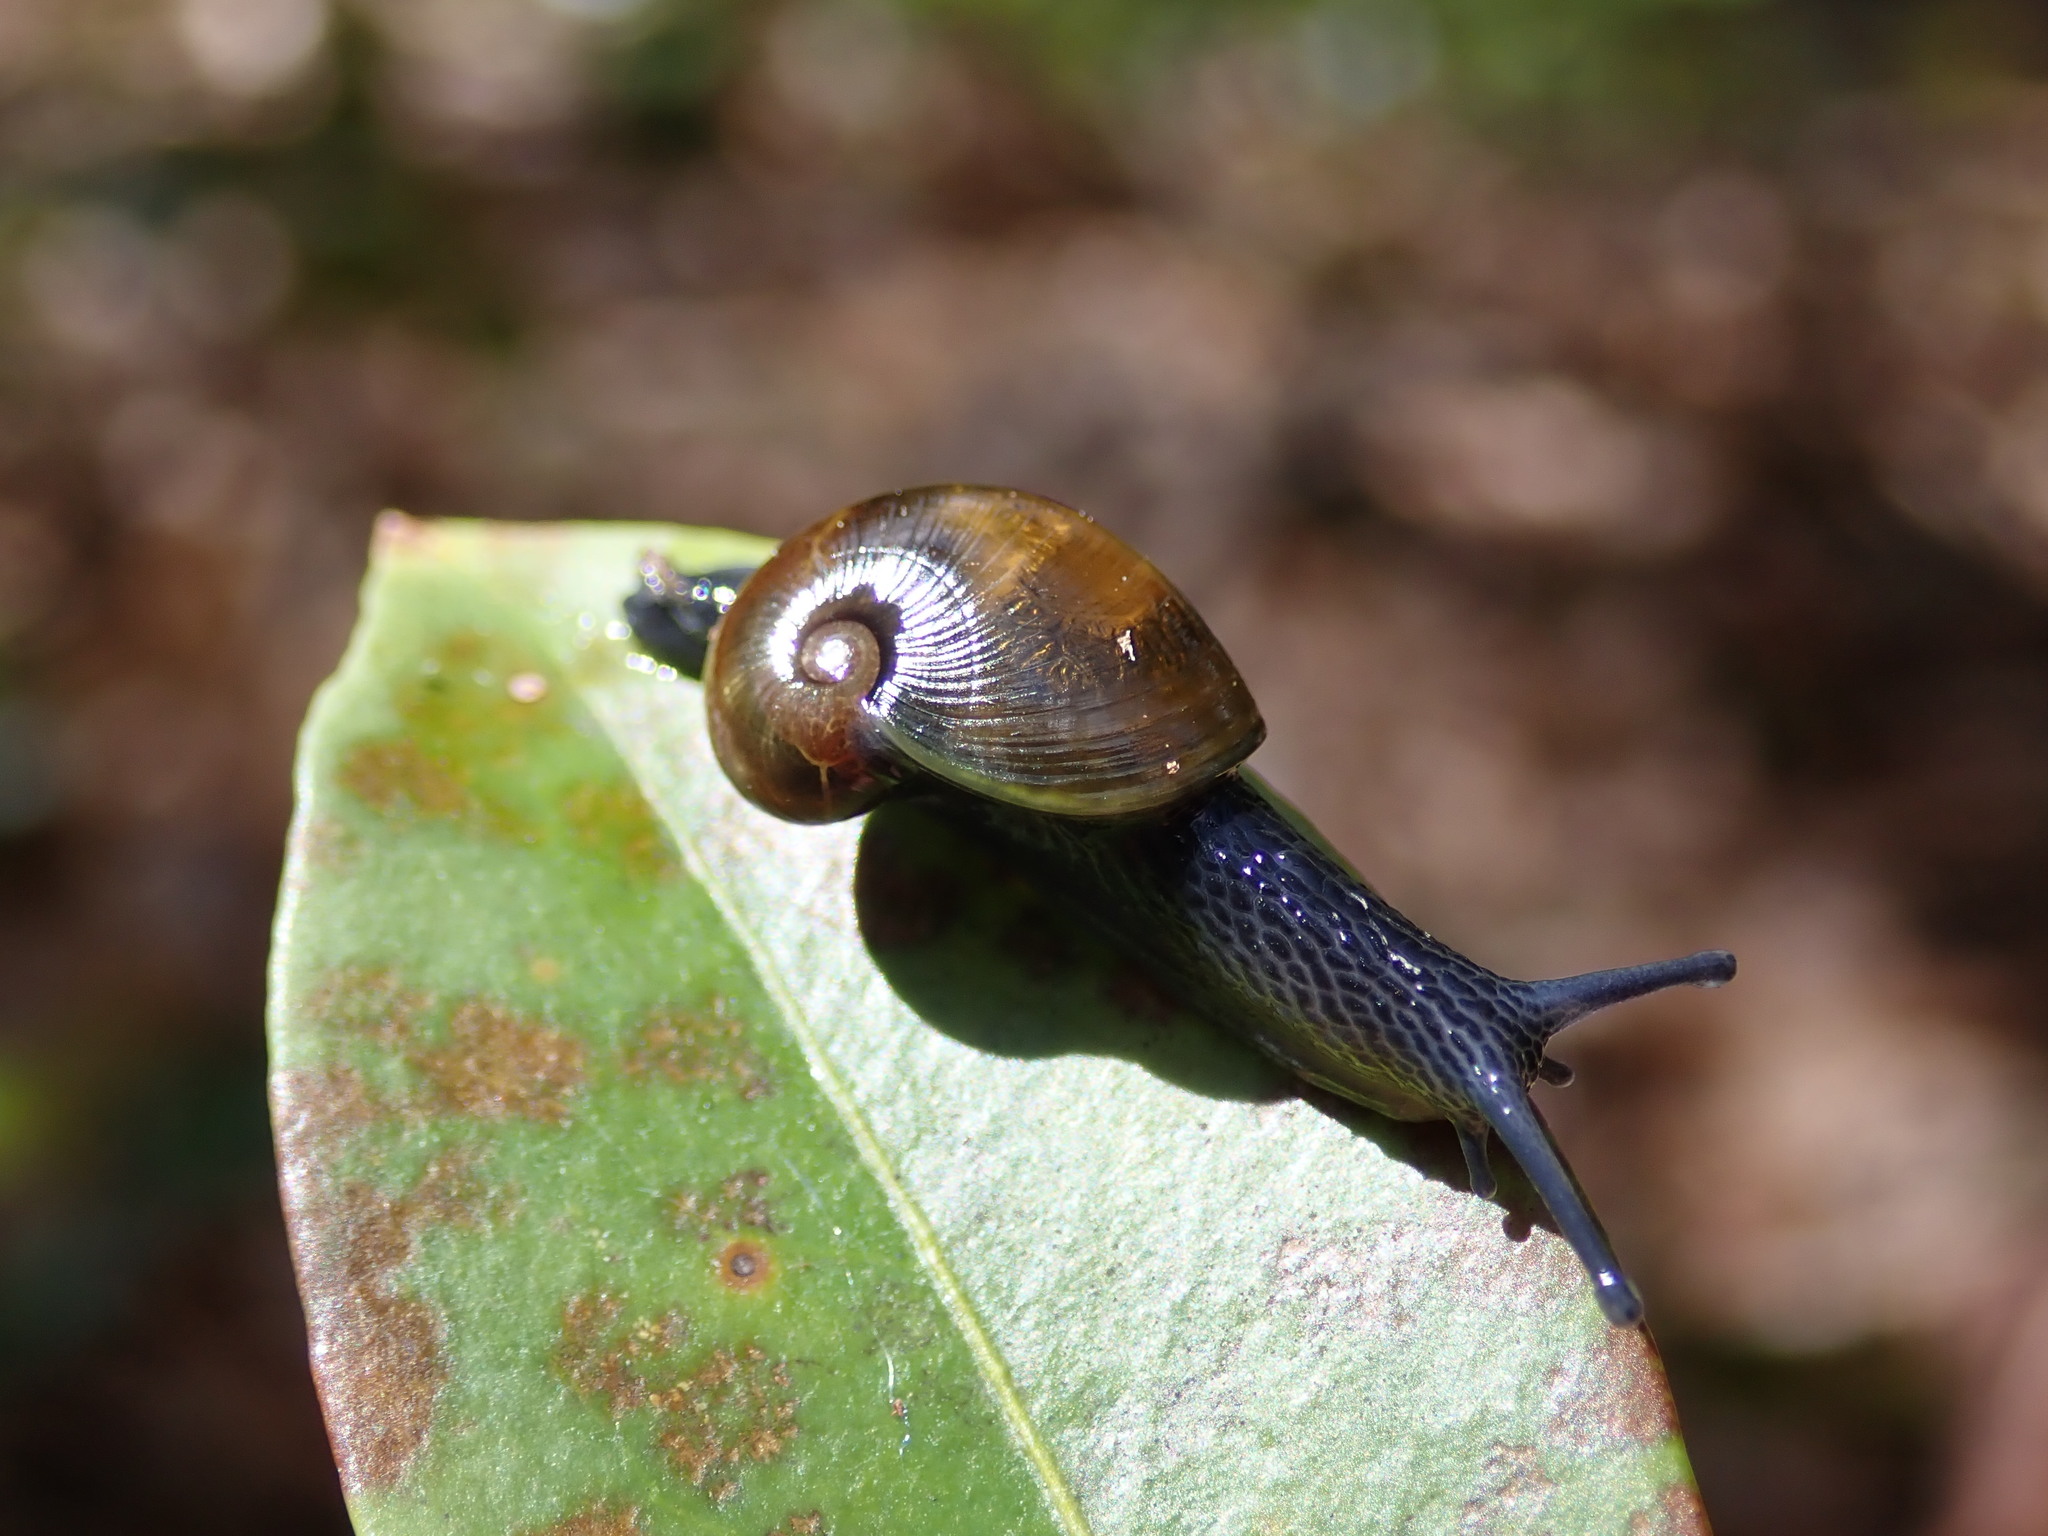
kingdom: Animalia
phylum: Mollusca
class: Gastropoda
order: Stylommatophora
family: Gastrodontidae
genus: Vitrinizonites
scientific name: Vitrinizonites latissimus
